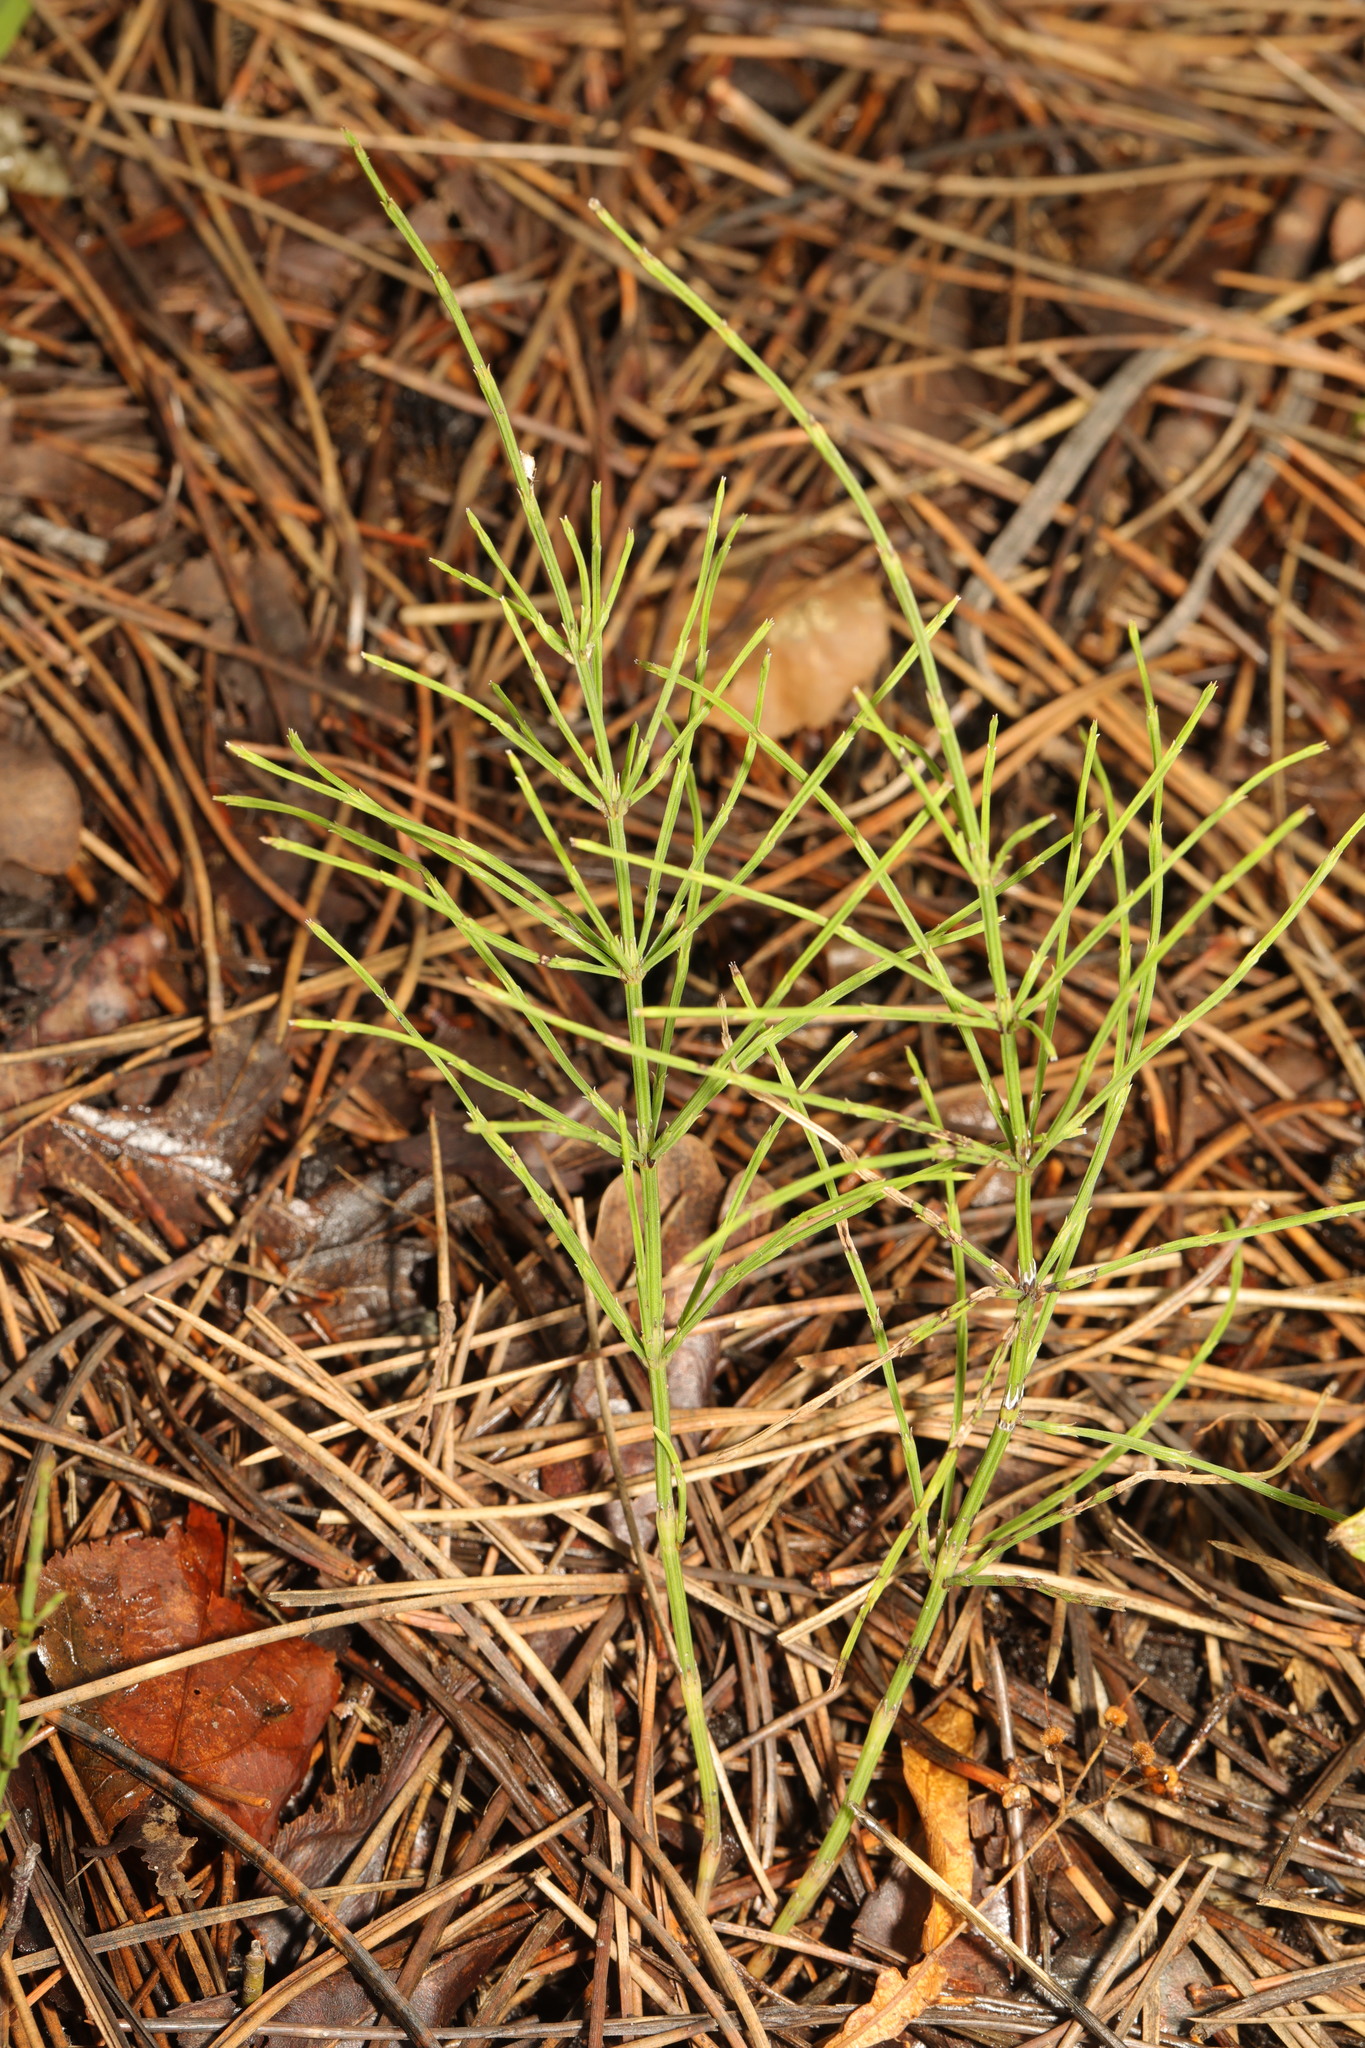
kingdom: Plantae
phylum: Tracheophyta
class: Polypodiopsida
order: Equisetales
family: Equisetaceae
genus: Equisetum
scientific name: Equisetum arvense
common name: Field horsetail
